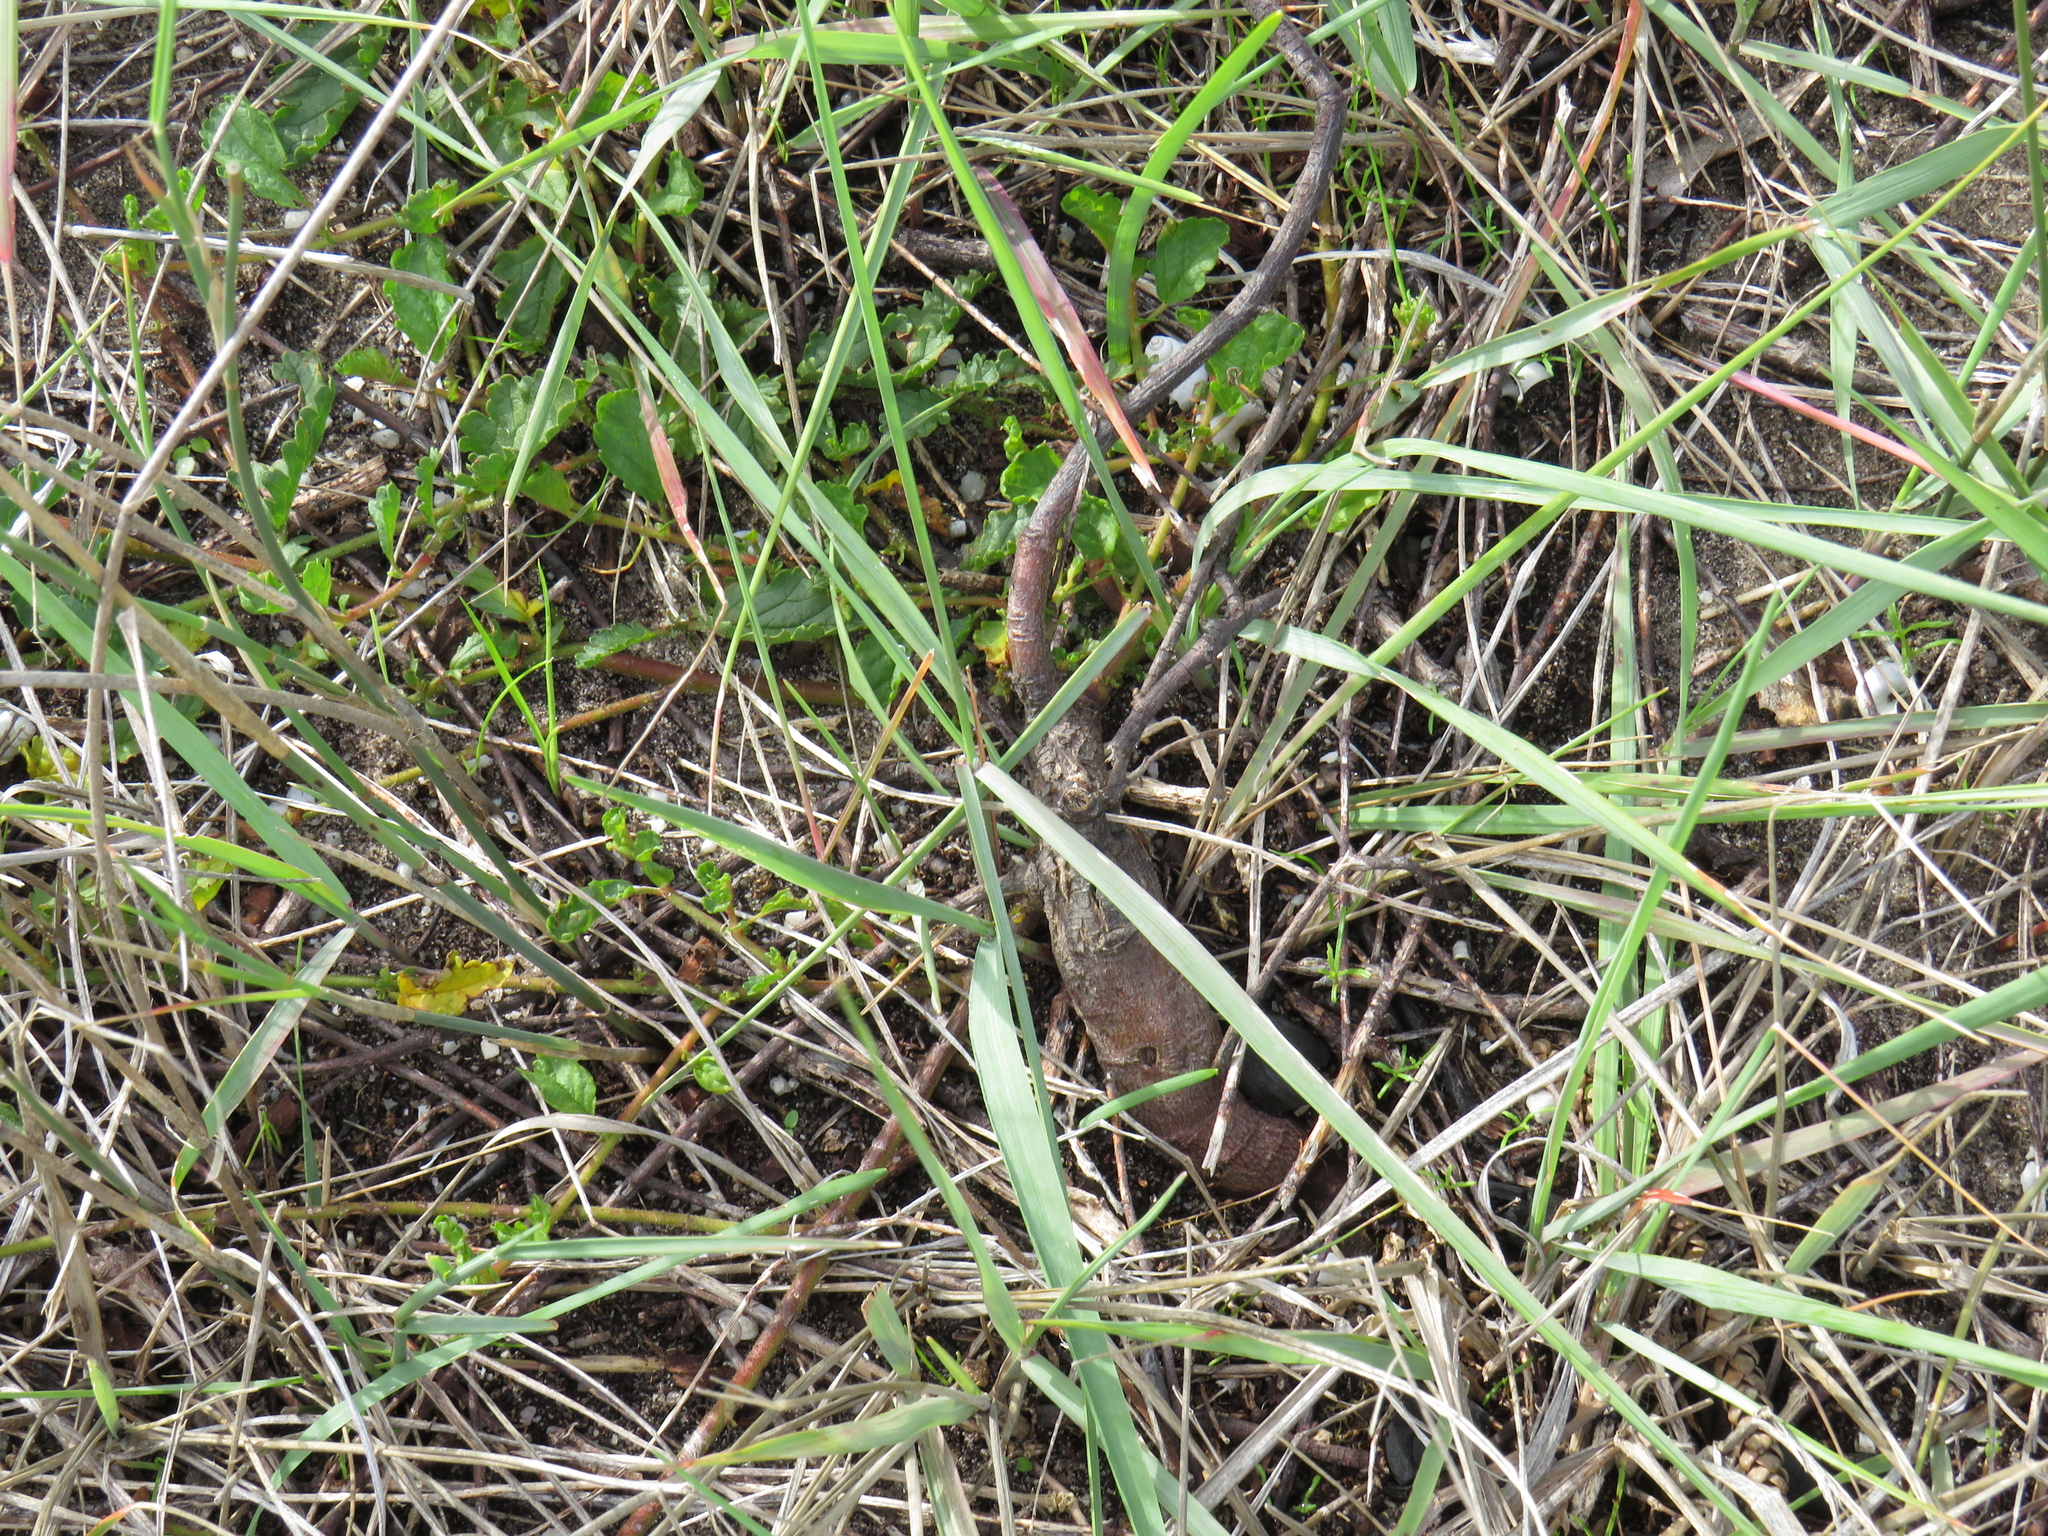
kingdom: Plantae
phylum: Tracheophyta
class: Magnoliopsida
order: Malvales
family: Malvaceae
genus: Hermannia
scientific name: Hermannia scabricaulis
